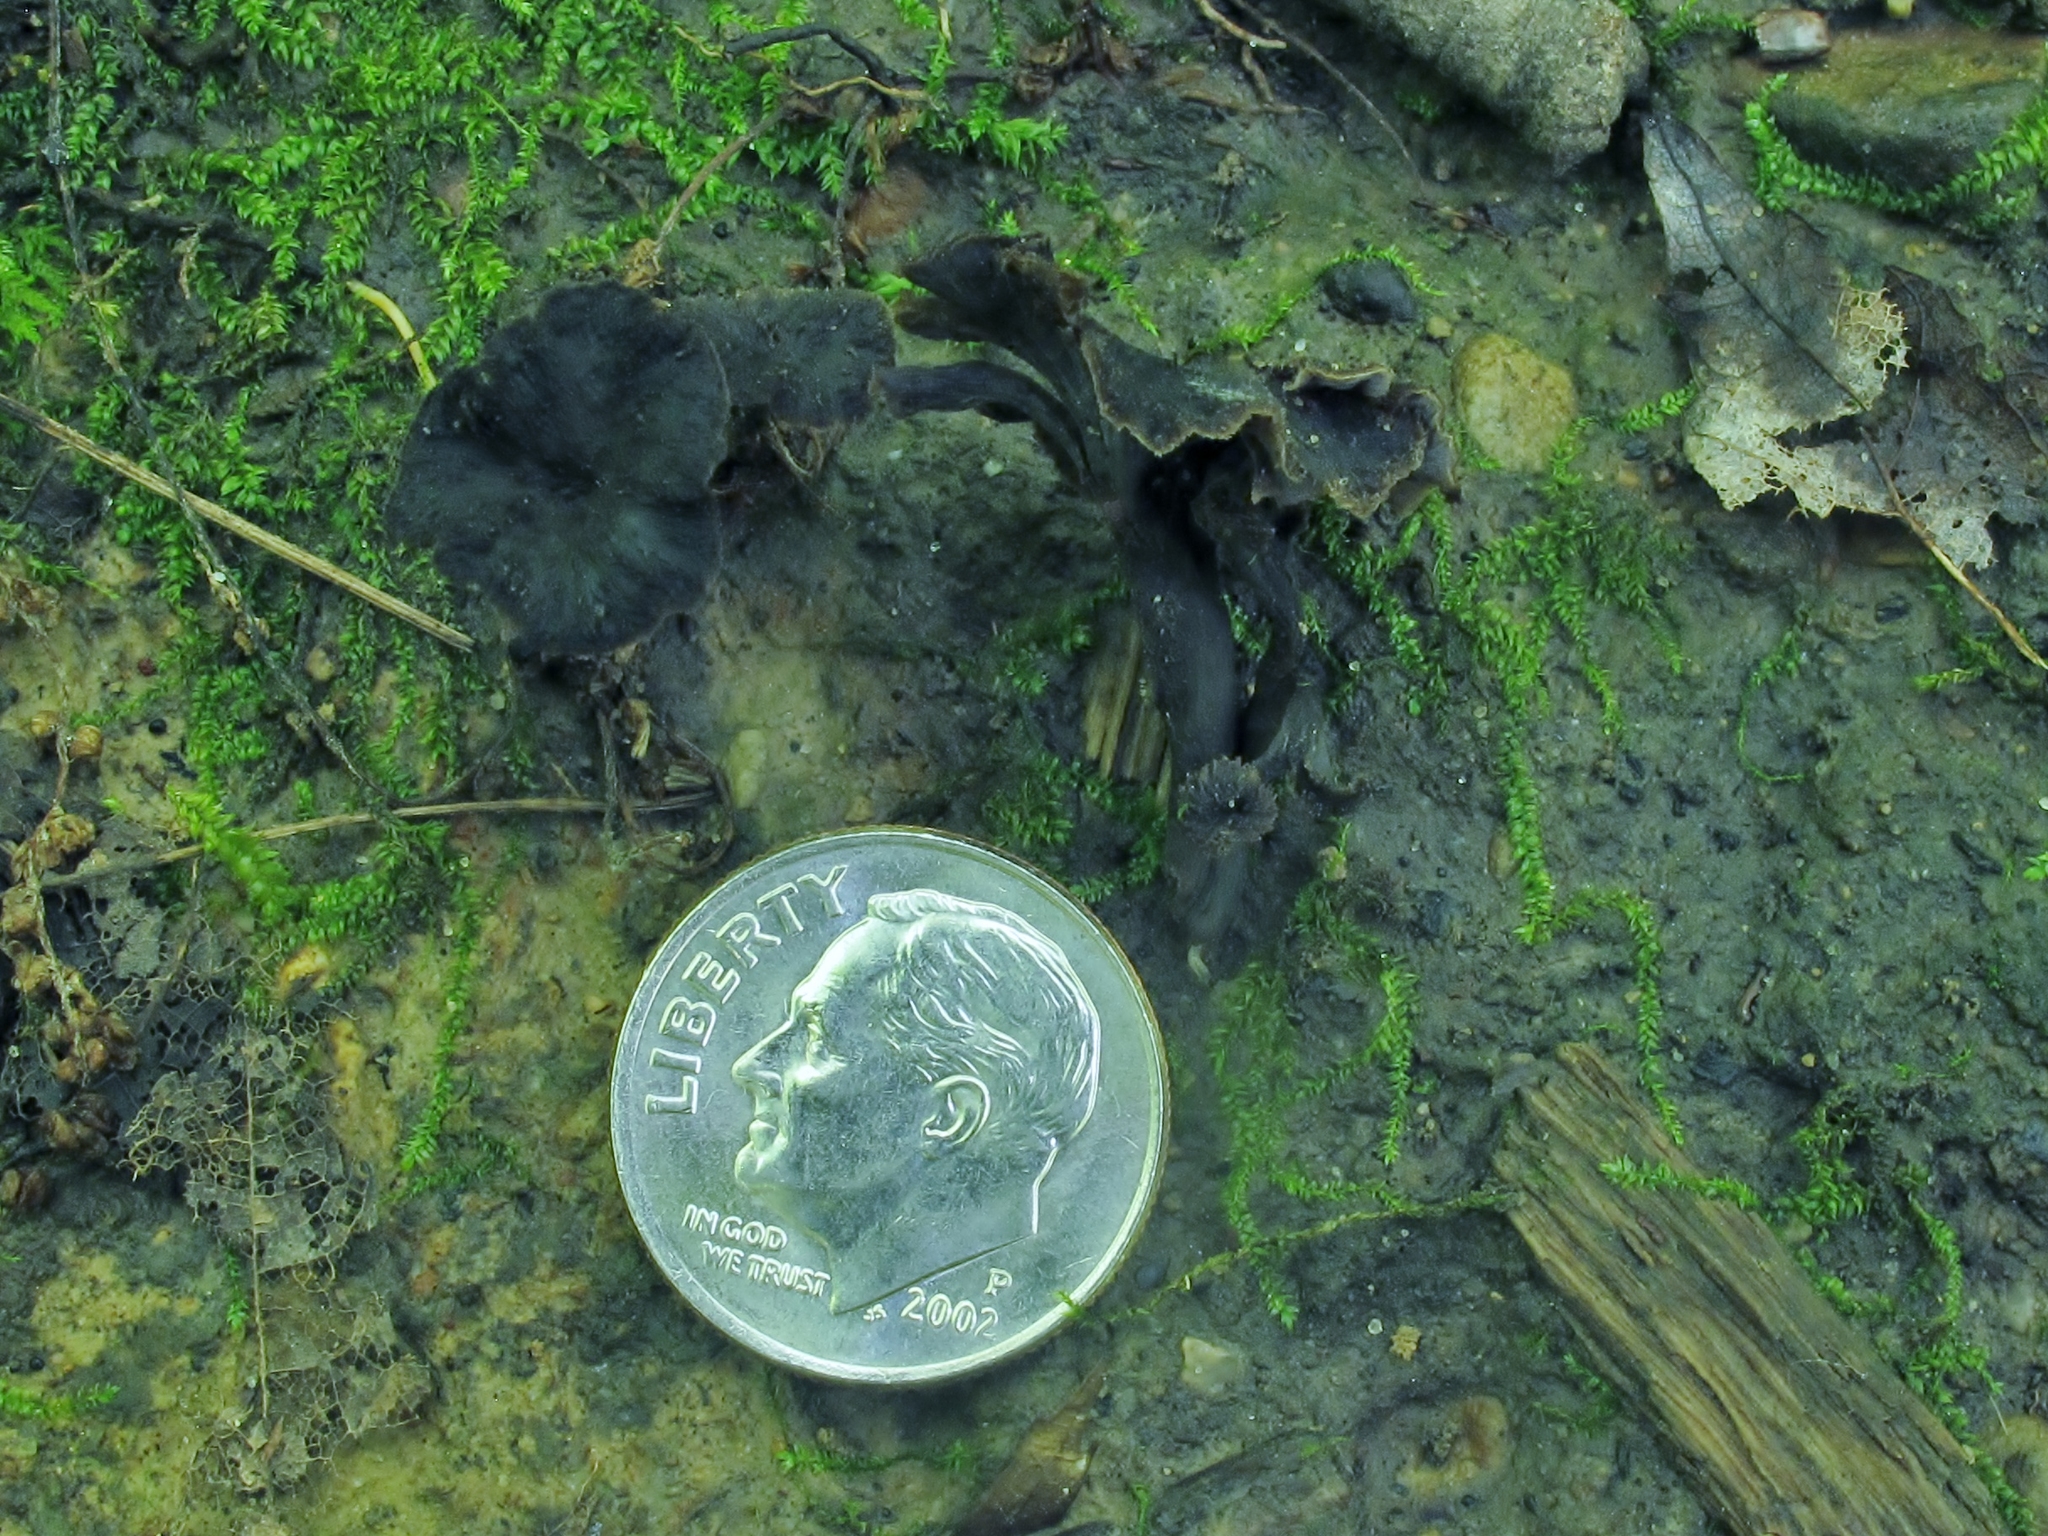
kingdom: Fungi
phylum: Basidiomycota
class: Agaricomycetes
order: Cantharellales
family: Hydnaceae
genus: Pseudocraterellus
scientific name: Pseudocraterellus calyculus
